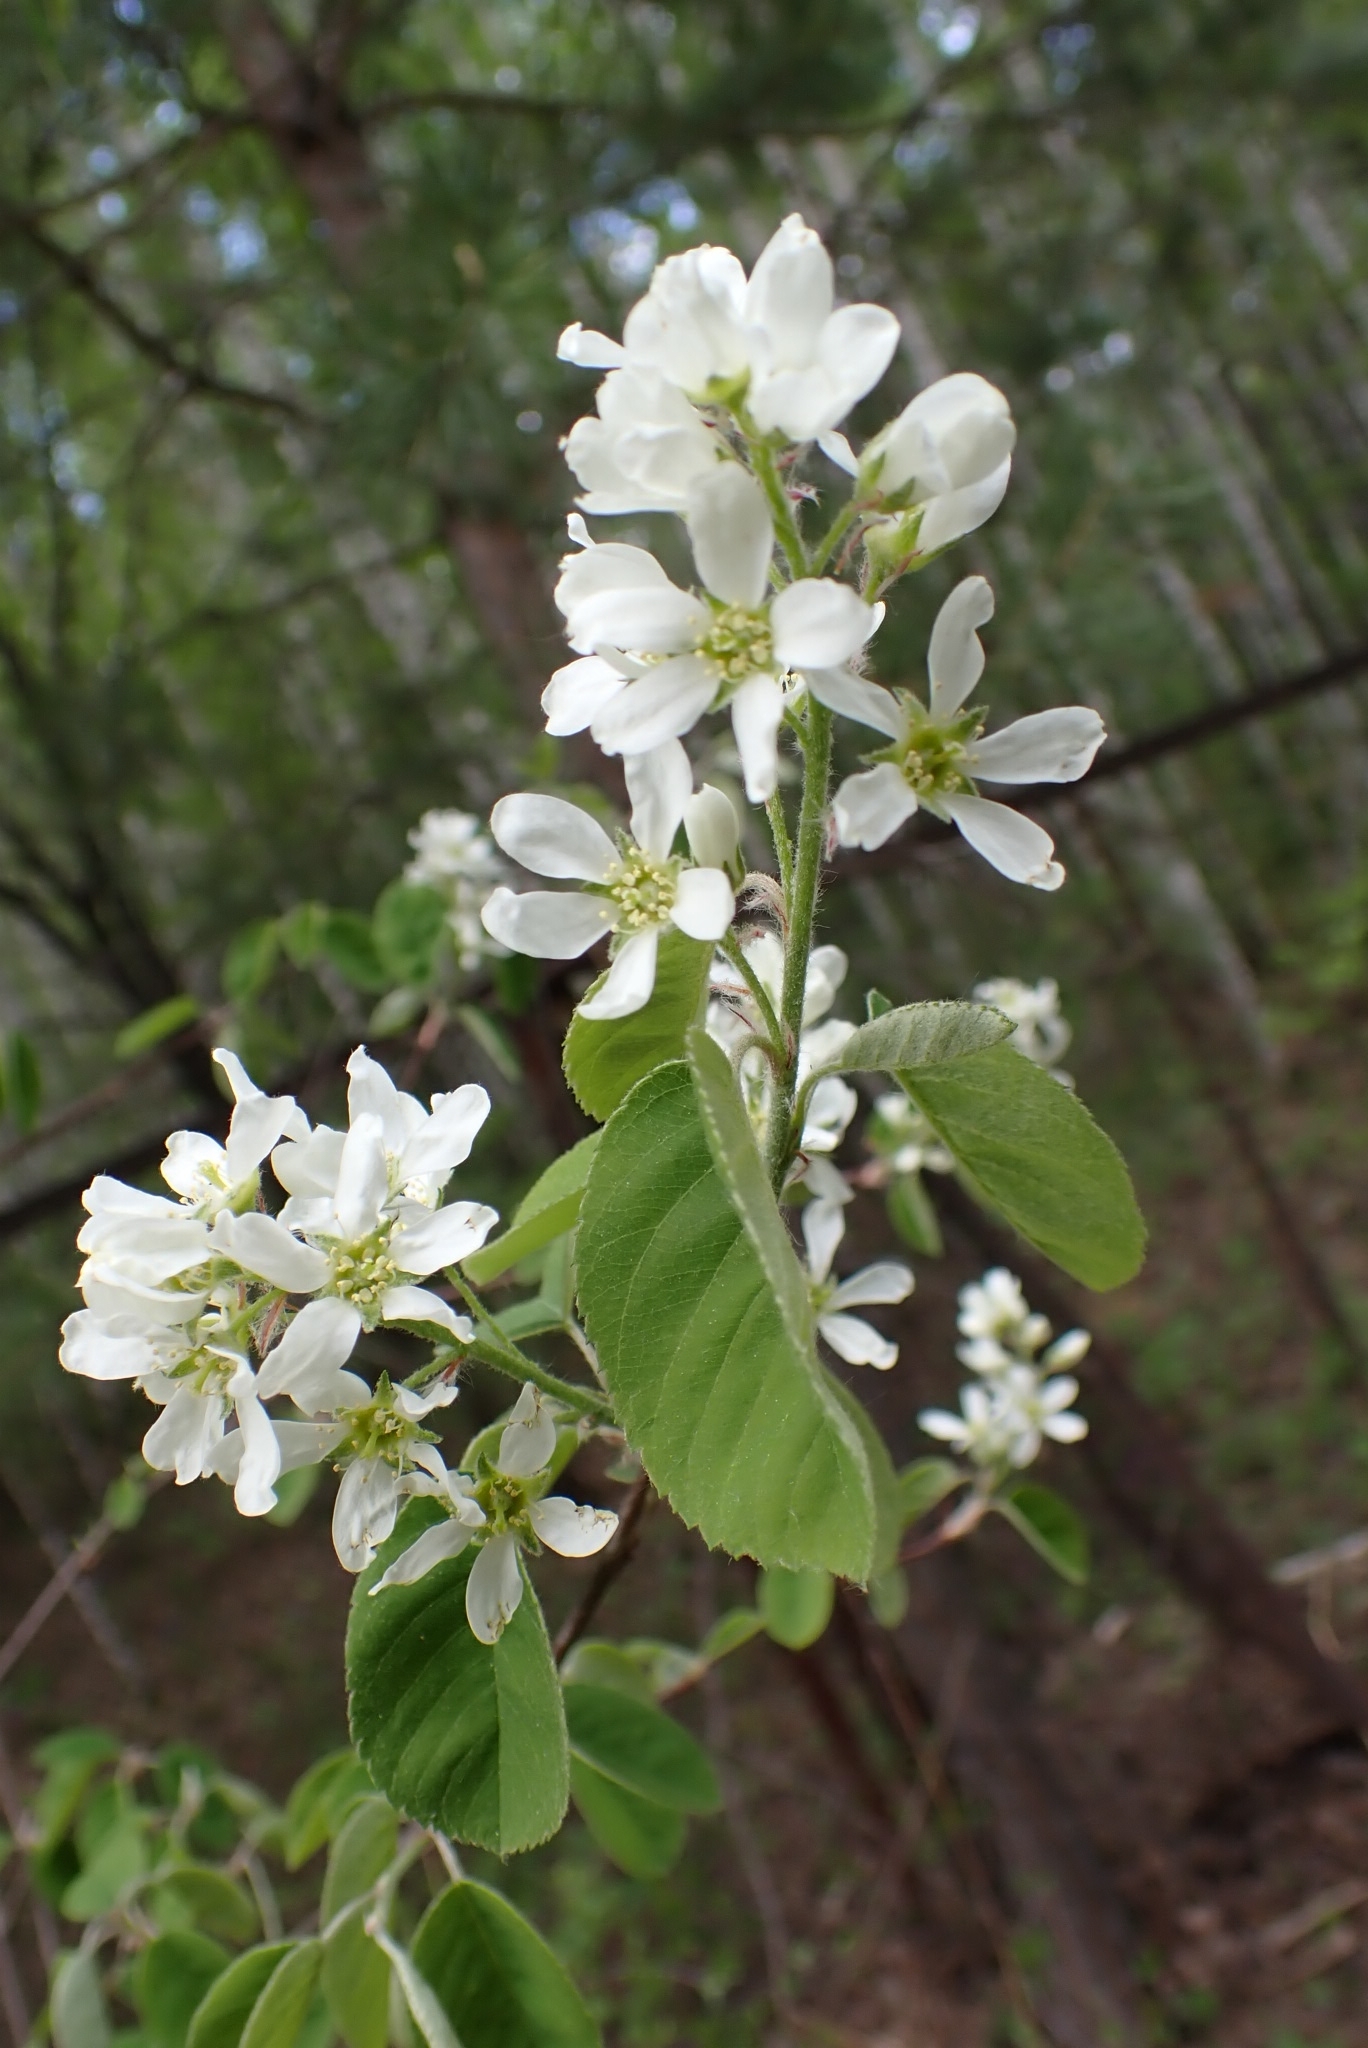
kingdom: Plantae
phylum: Tracheophyta
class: Magnoliopsida
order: Rosales
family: Rosaceae
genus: Amelanchier
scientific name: Amelanchier
